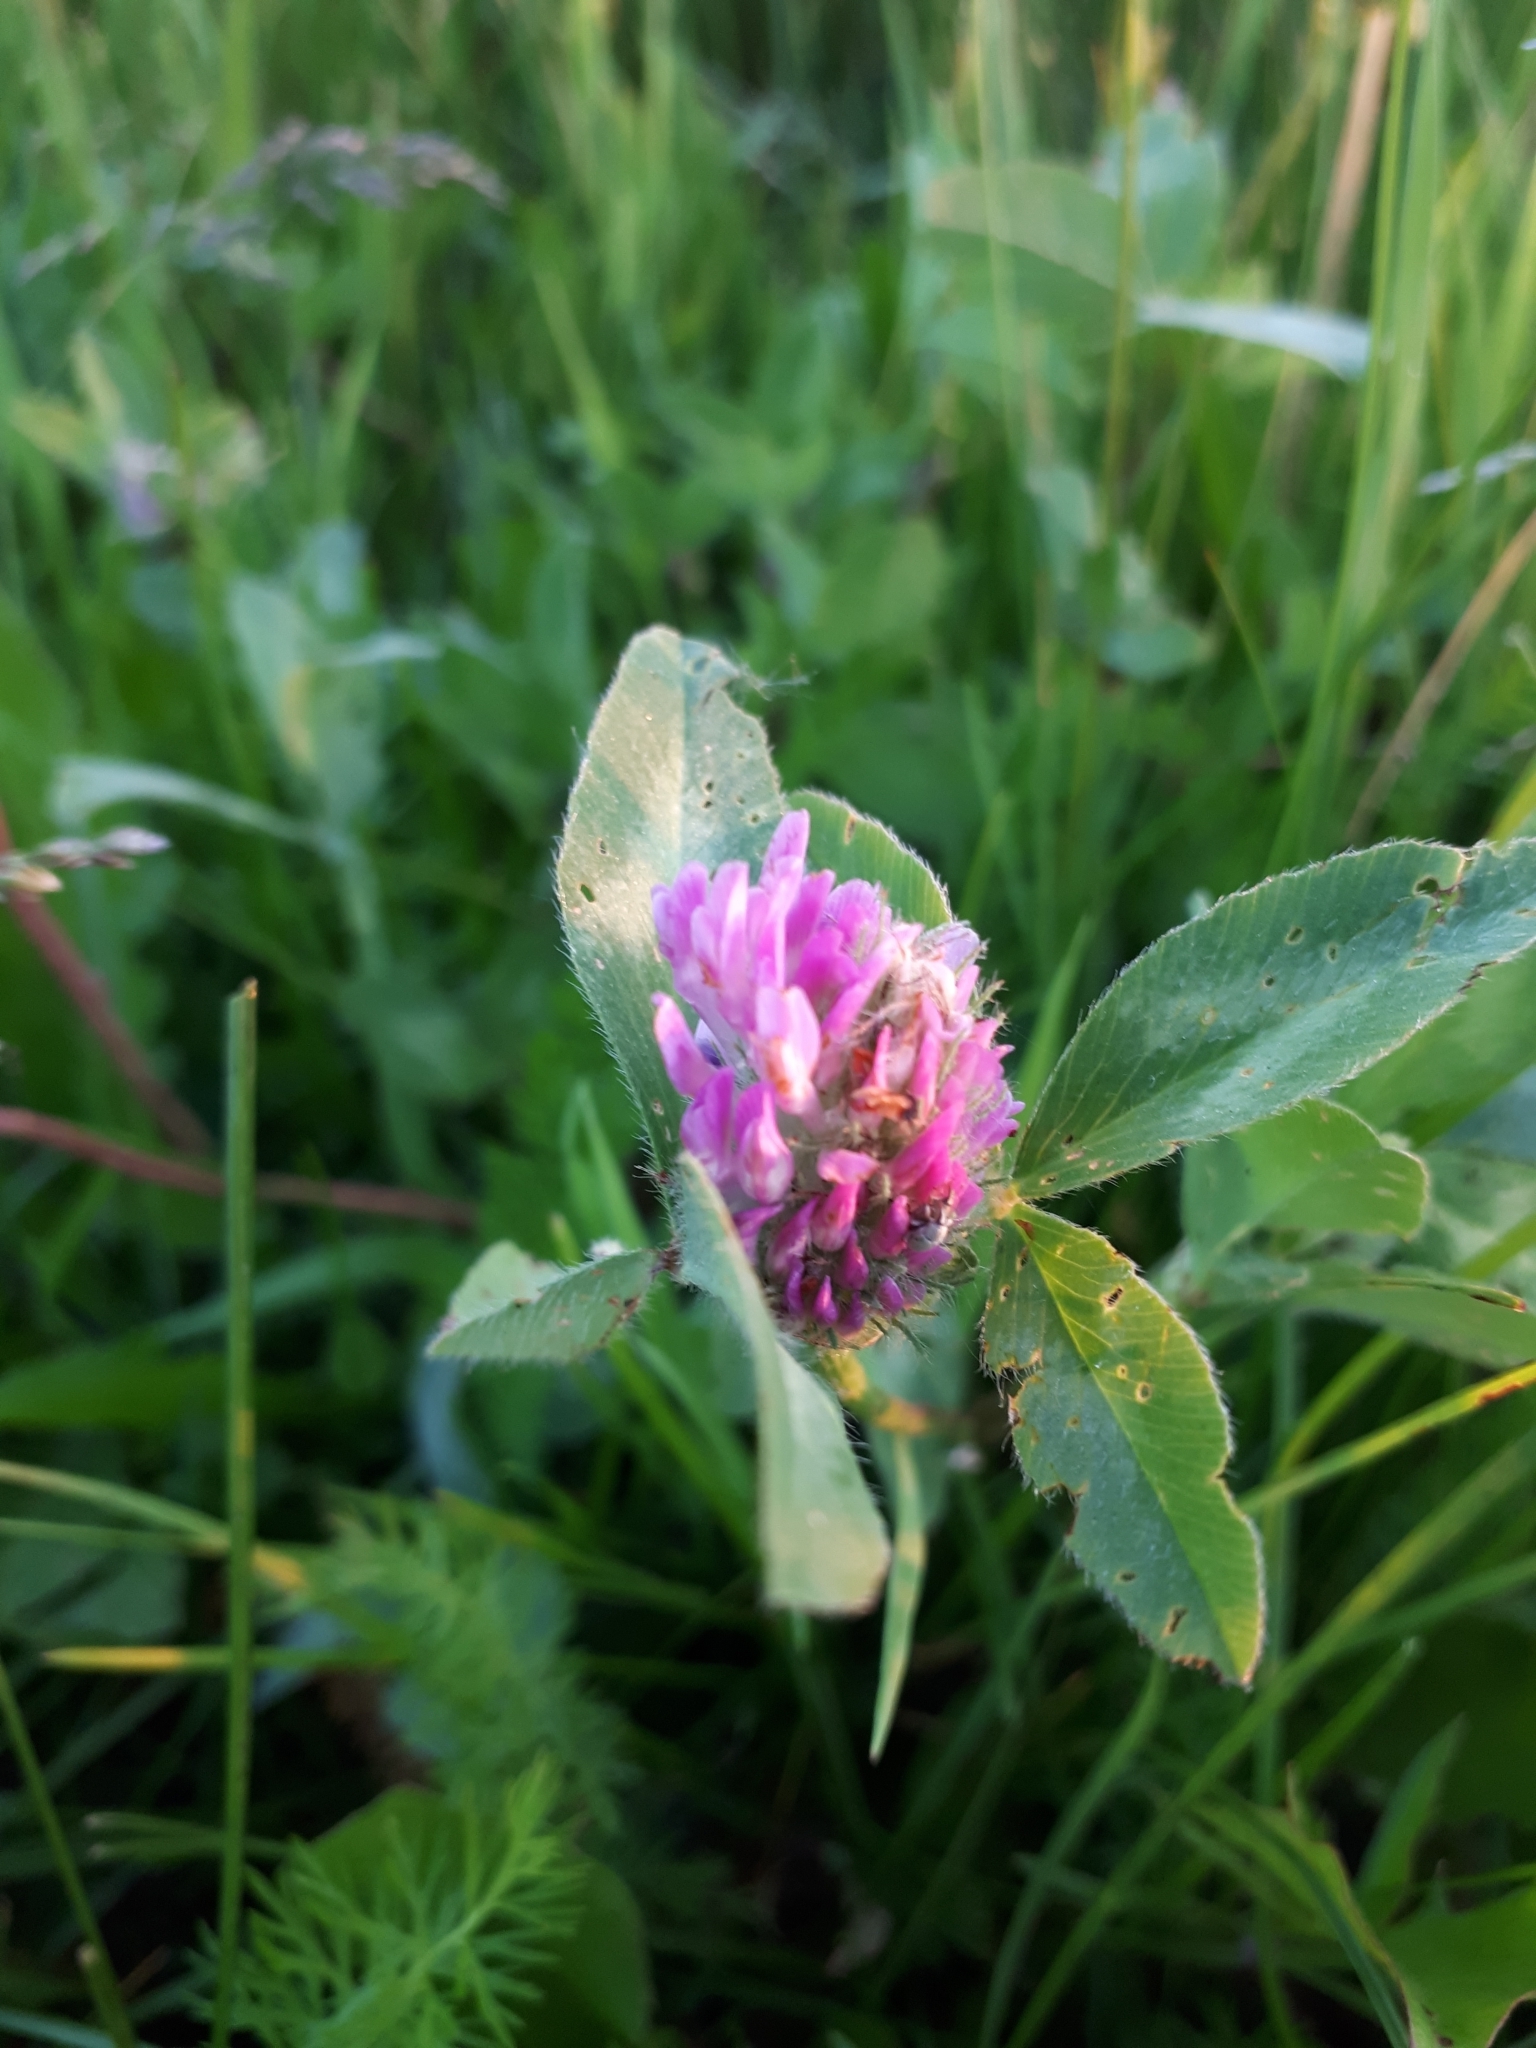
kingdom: Plantae
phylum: Tracheophyta
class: Magnoliopsida
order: Fabales
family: Fabaceae
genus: Trifolium
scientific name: Trifolium pratense
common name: Red clover
